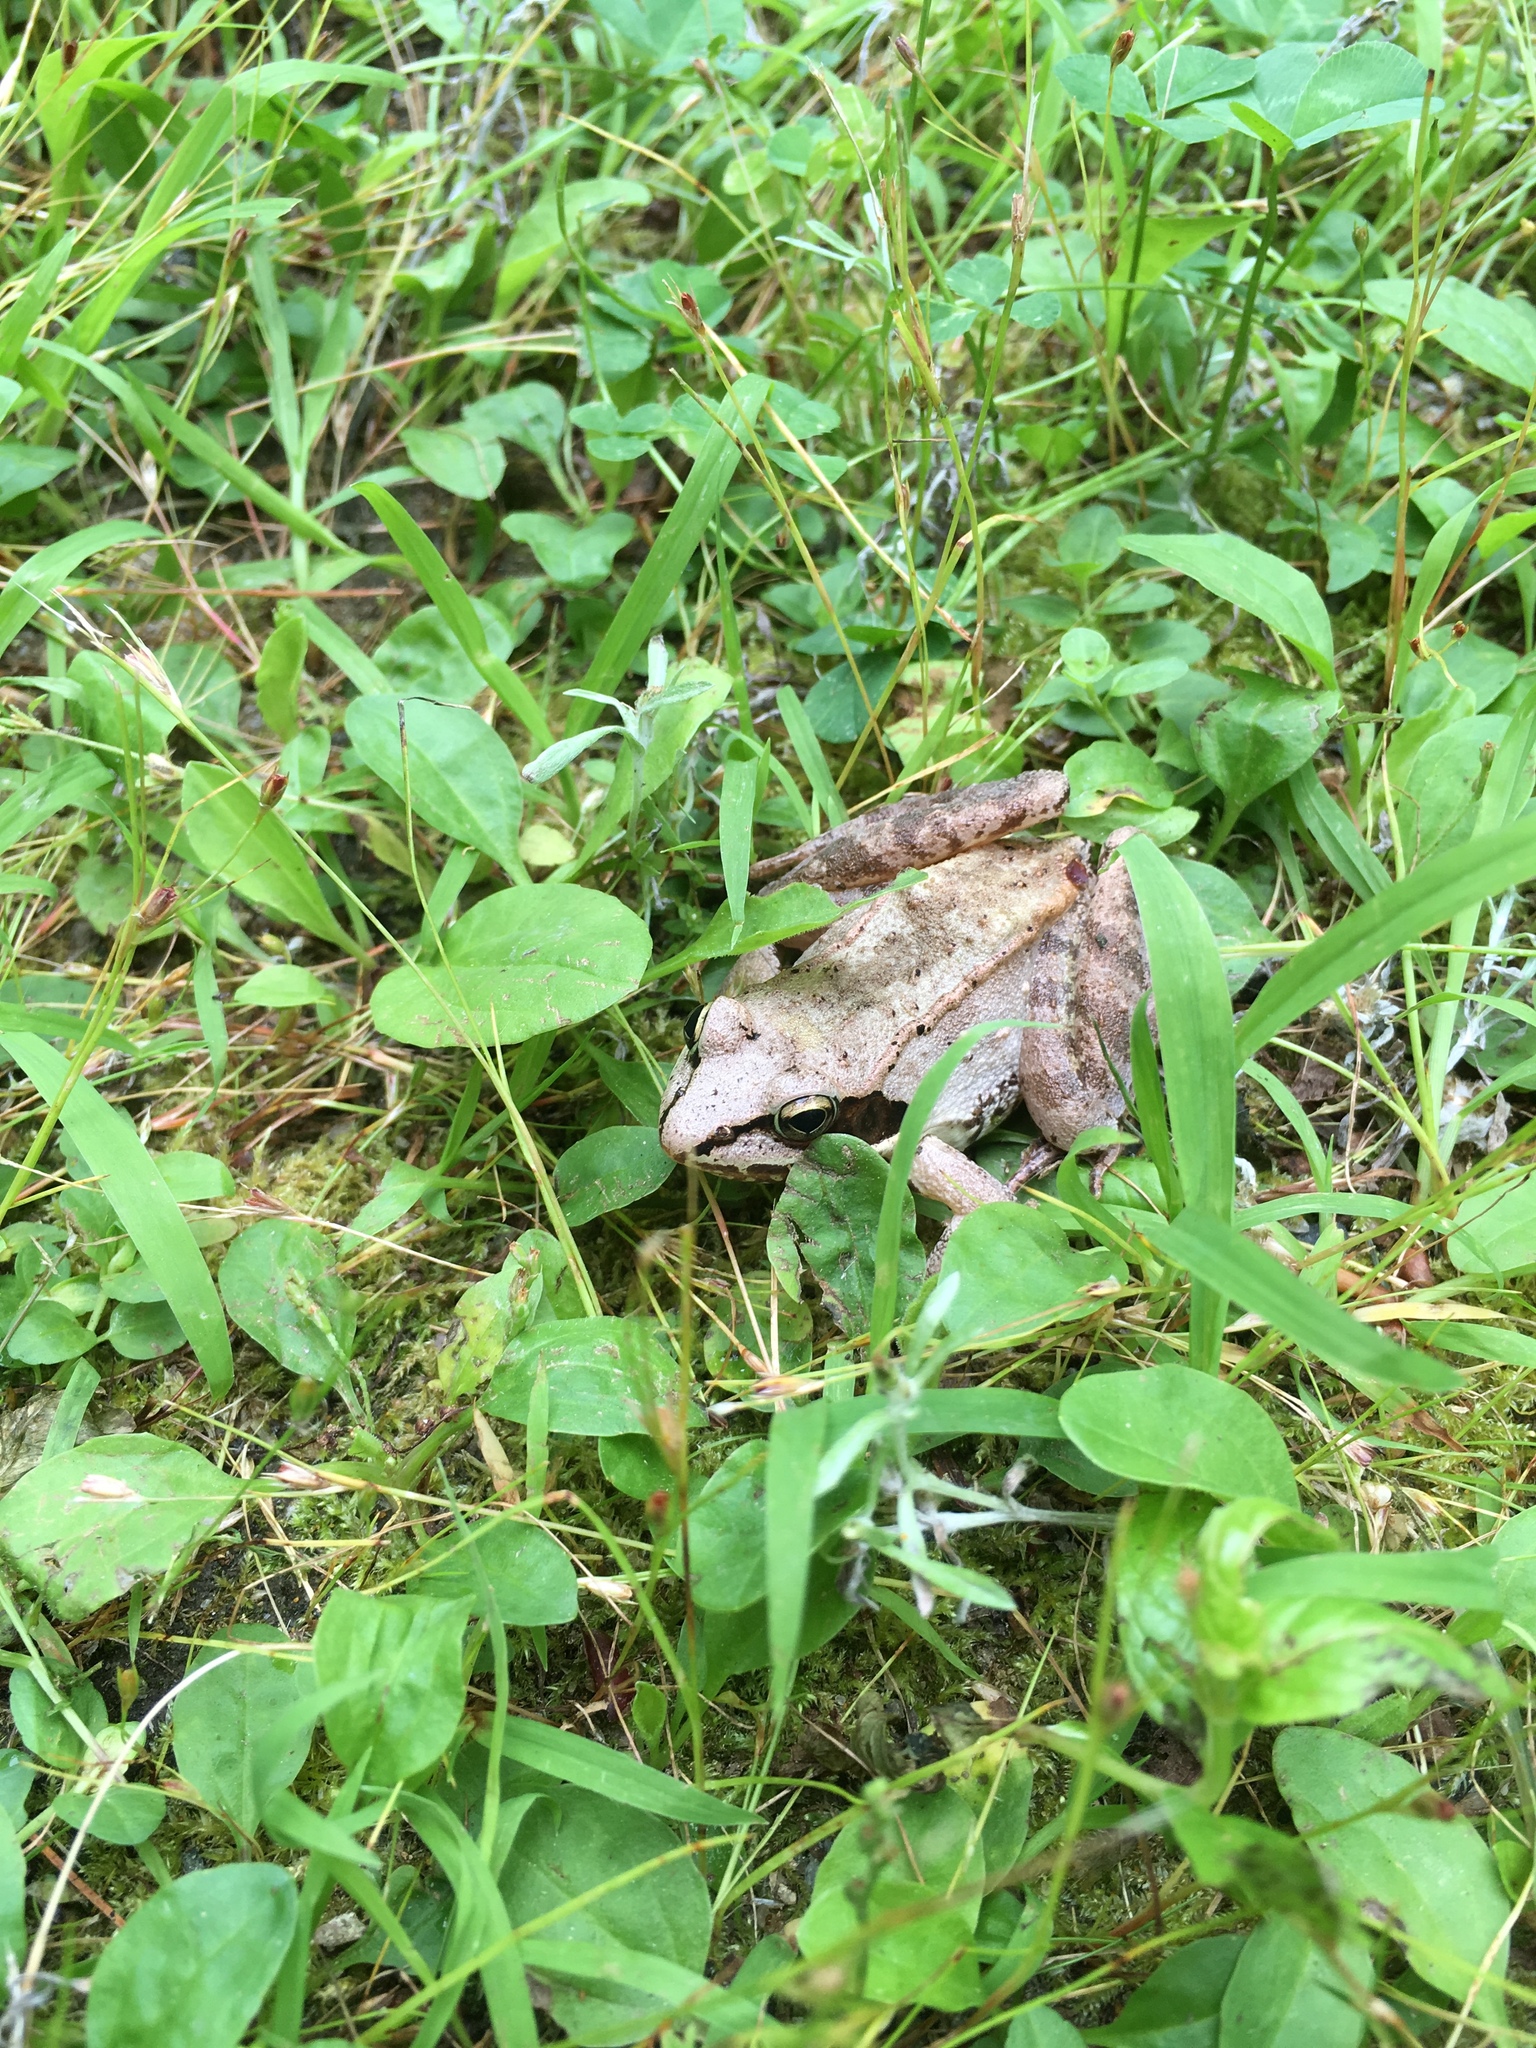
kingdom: Animalia
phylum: Chordata
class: Amphibia
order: Anura
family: Ranidae
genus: Lithobates
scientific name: Lithobates sylvaticus
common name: Wood frog
